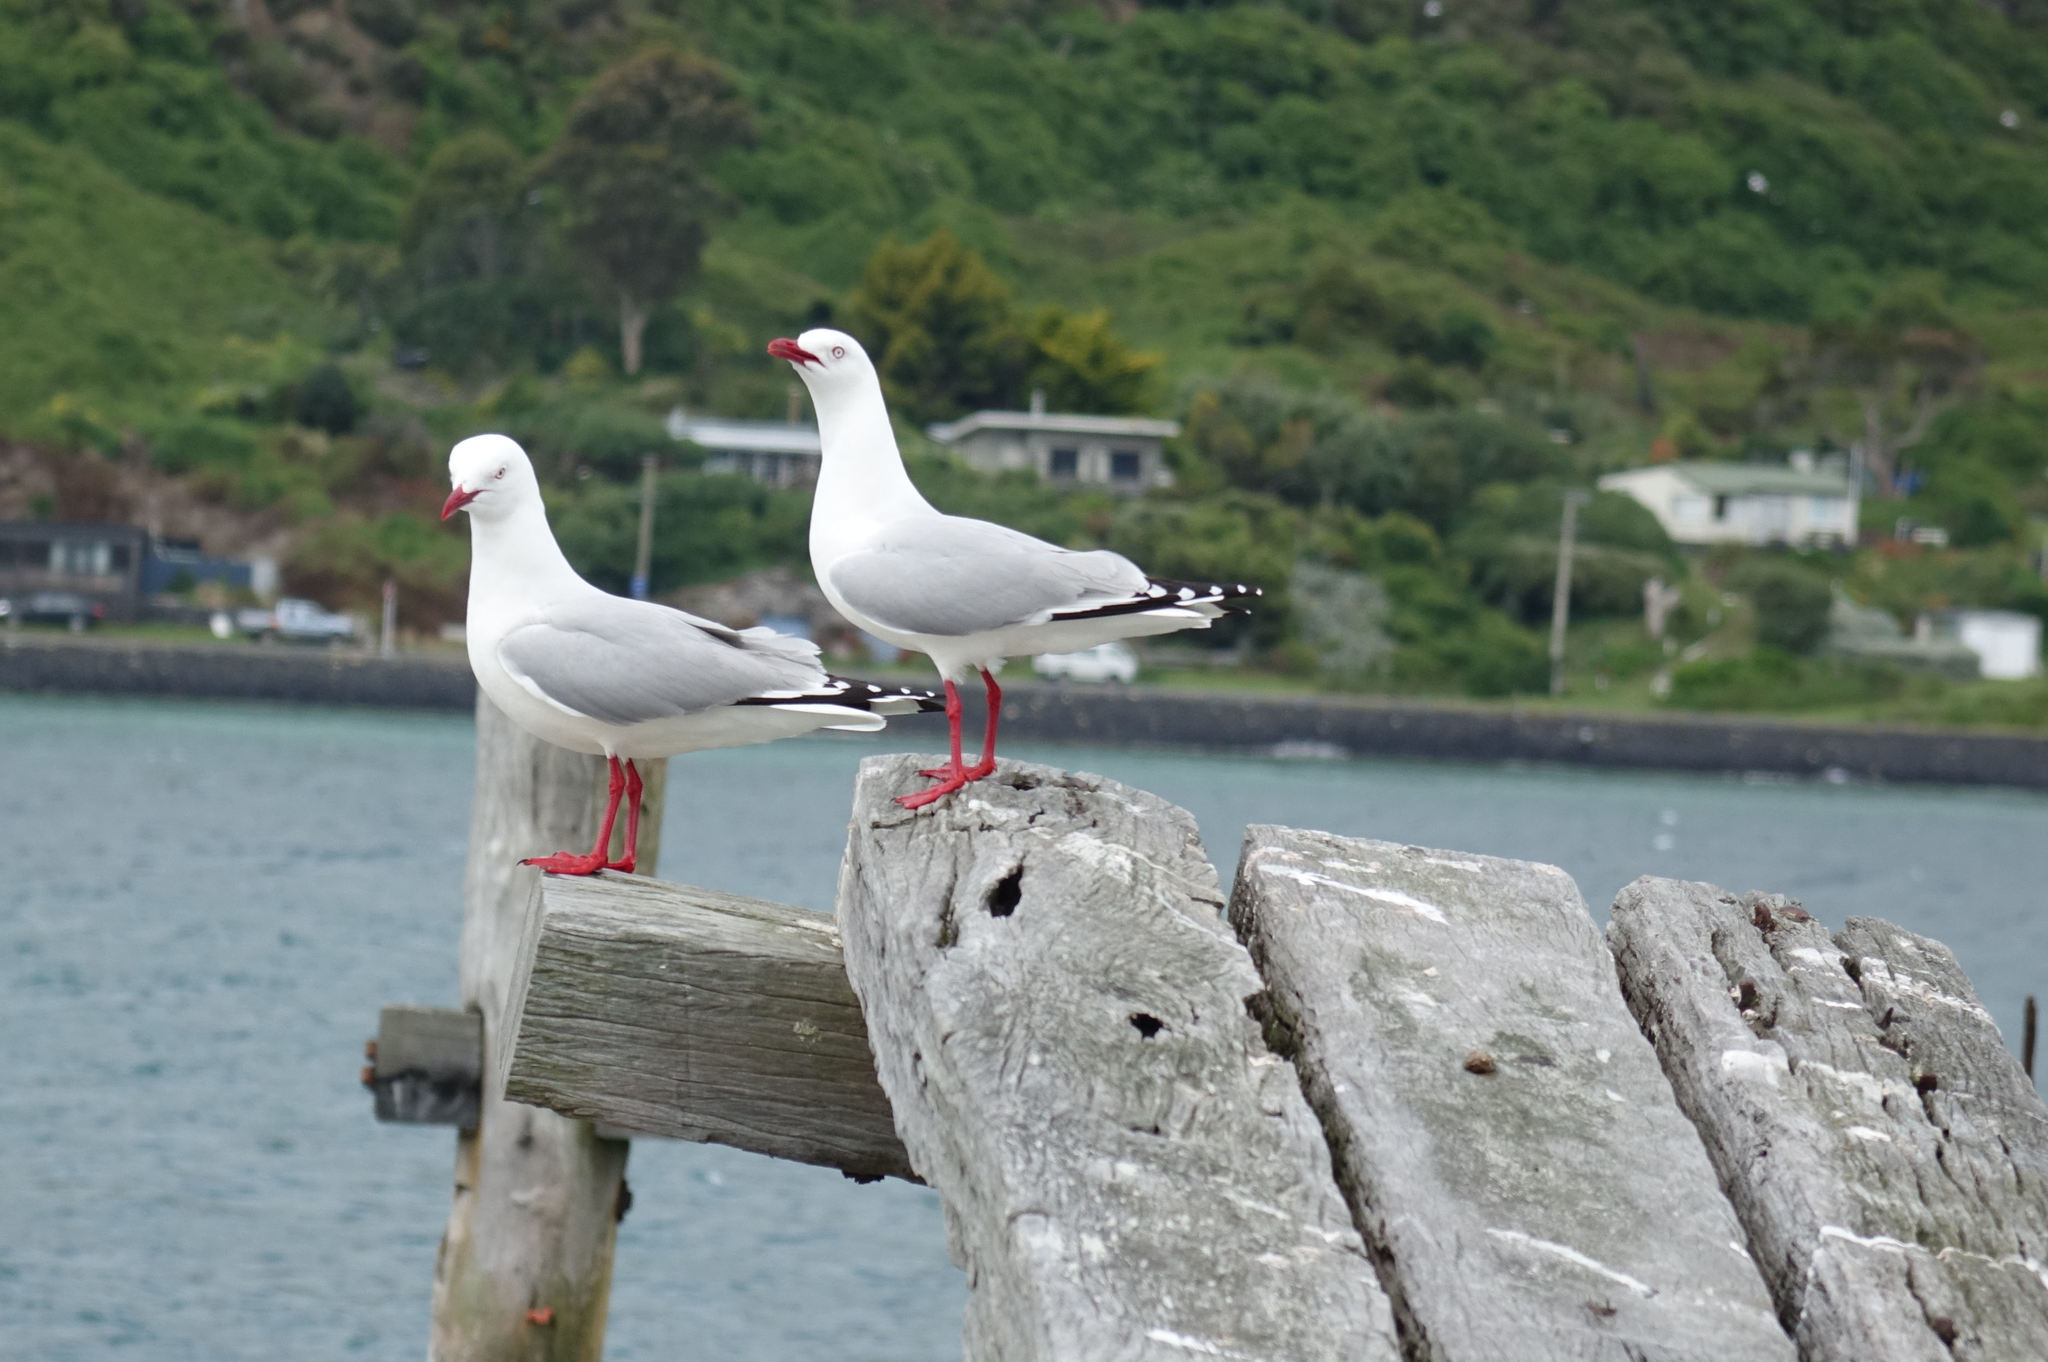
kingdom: Animalia
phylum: Chordata
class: Aves
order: Charadriiformes
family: Laridae
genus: Chroicocephalus
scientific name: Chroicocephalus novaehollandiae
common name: Silver gull
